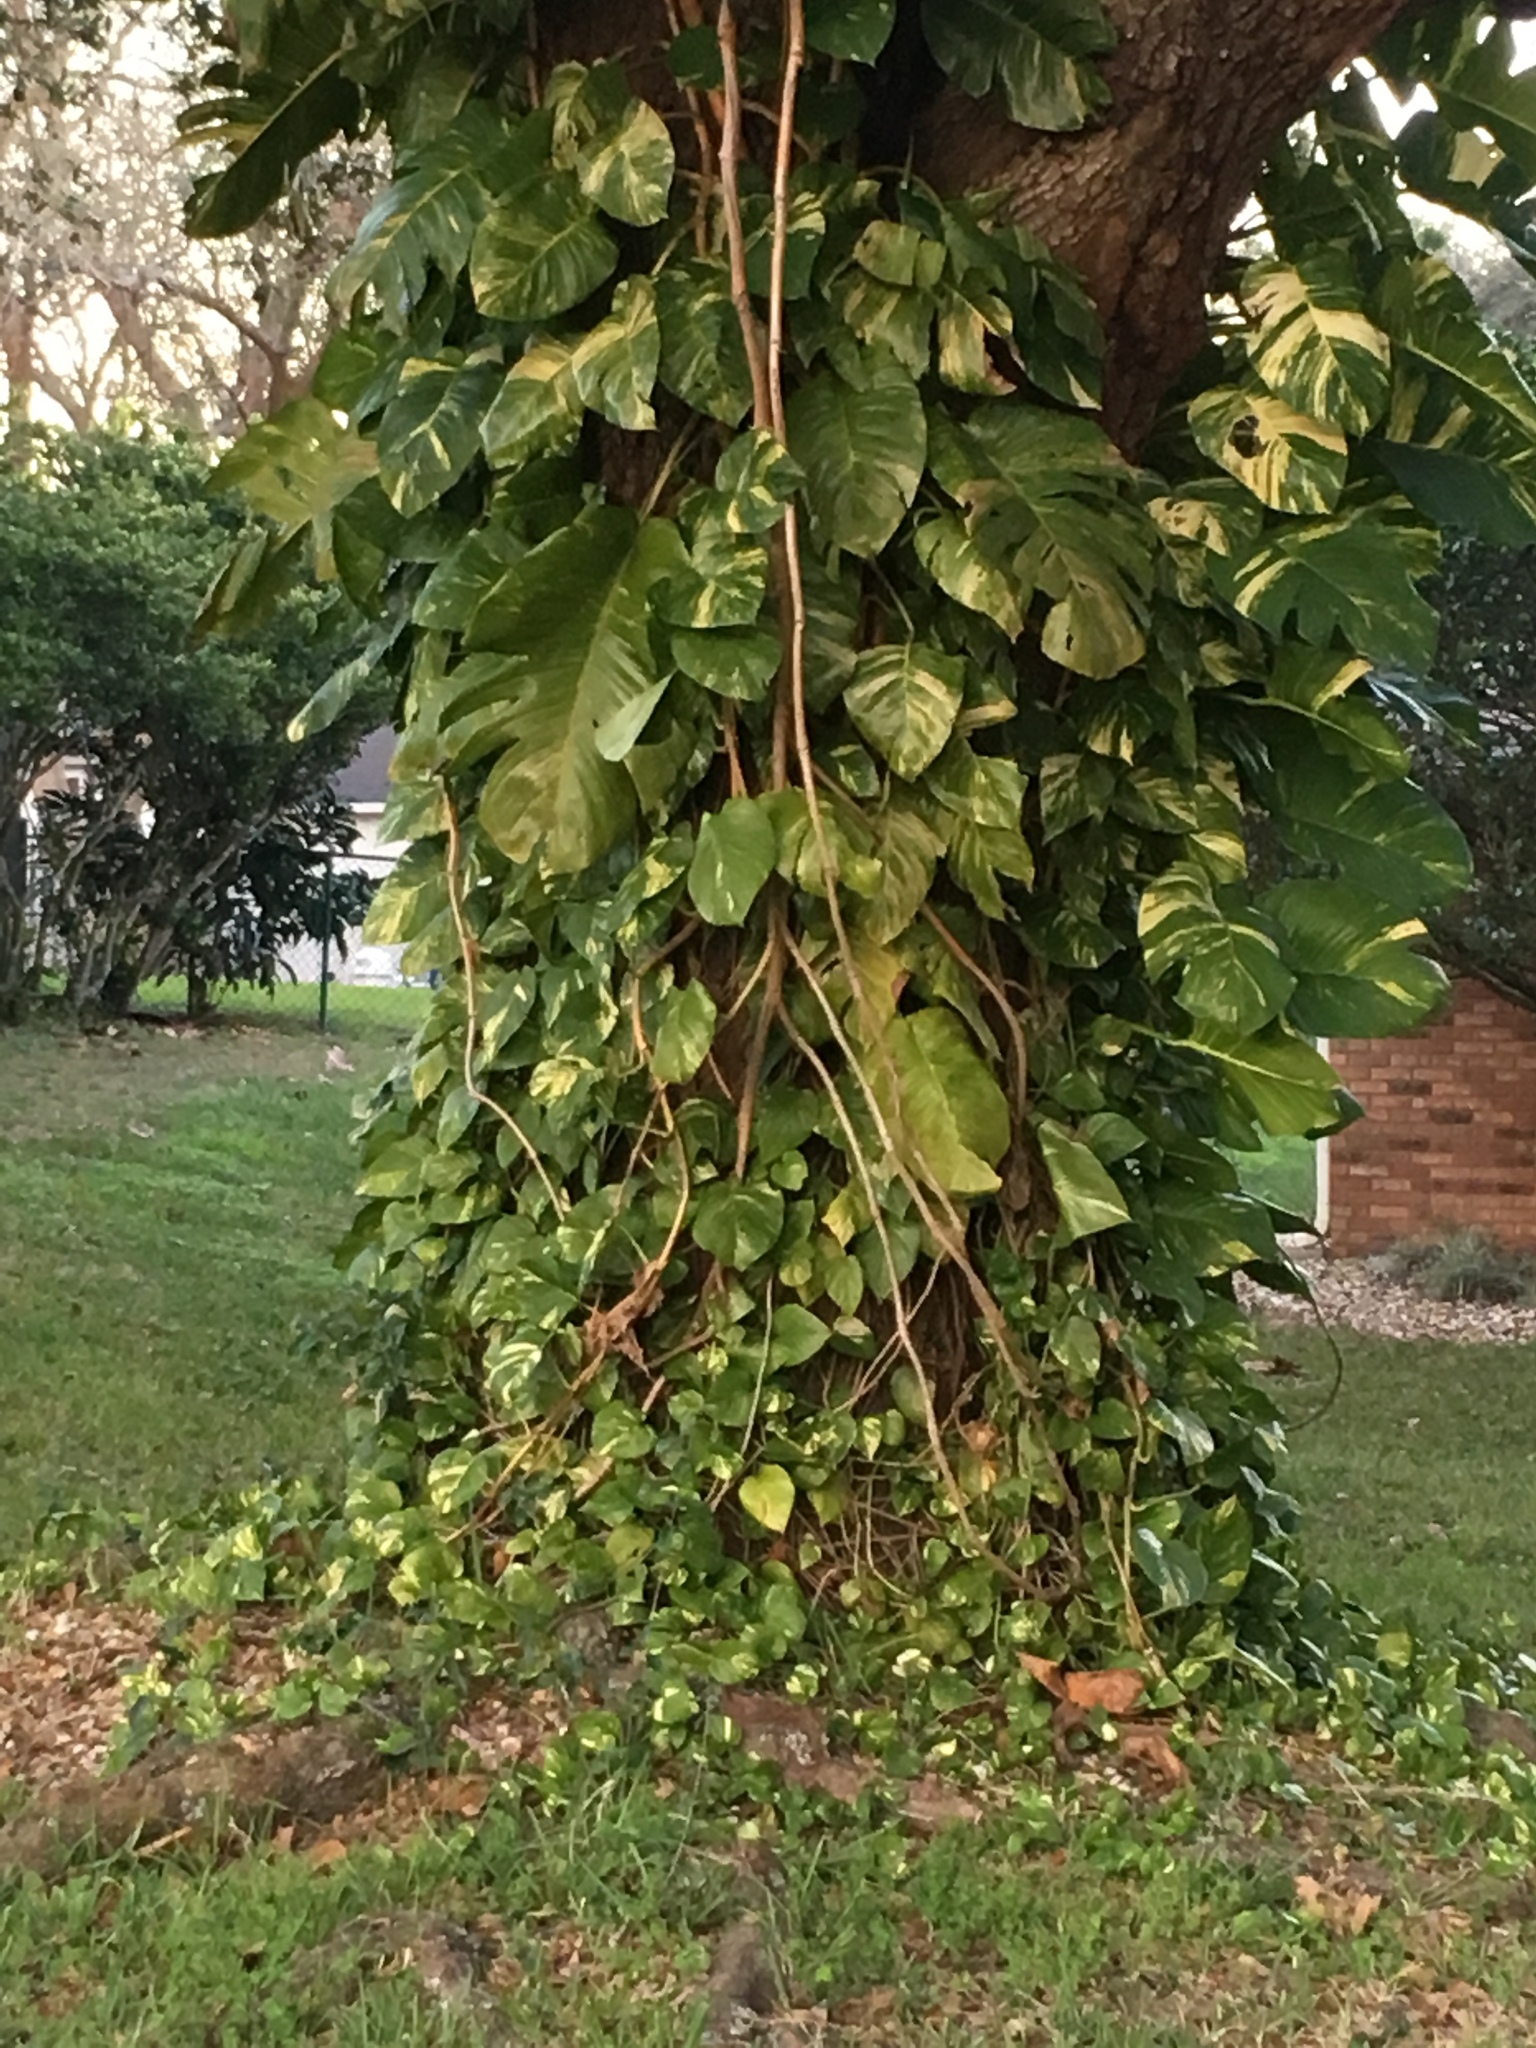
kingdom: Plantae
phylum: Tracheophyta
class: Liliopsida
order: Alismatales
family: Araceae
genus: Epipremnum
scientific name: Epipremnum aureum
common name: Golden hunter's-robe
